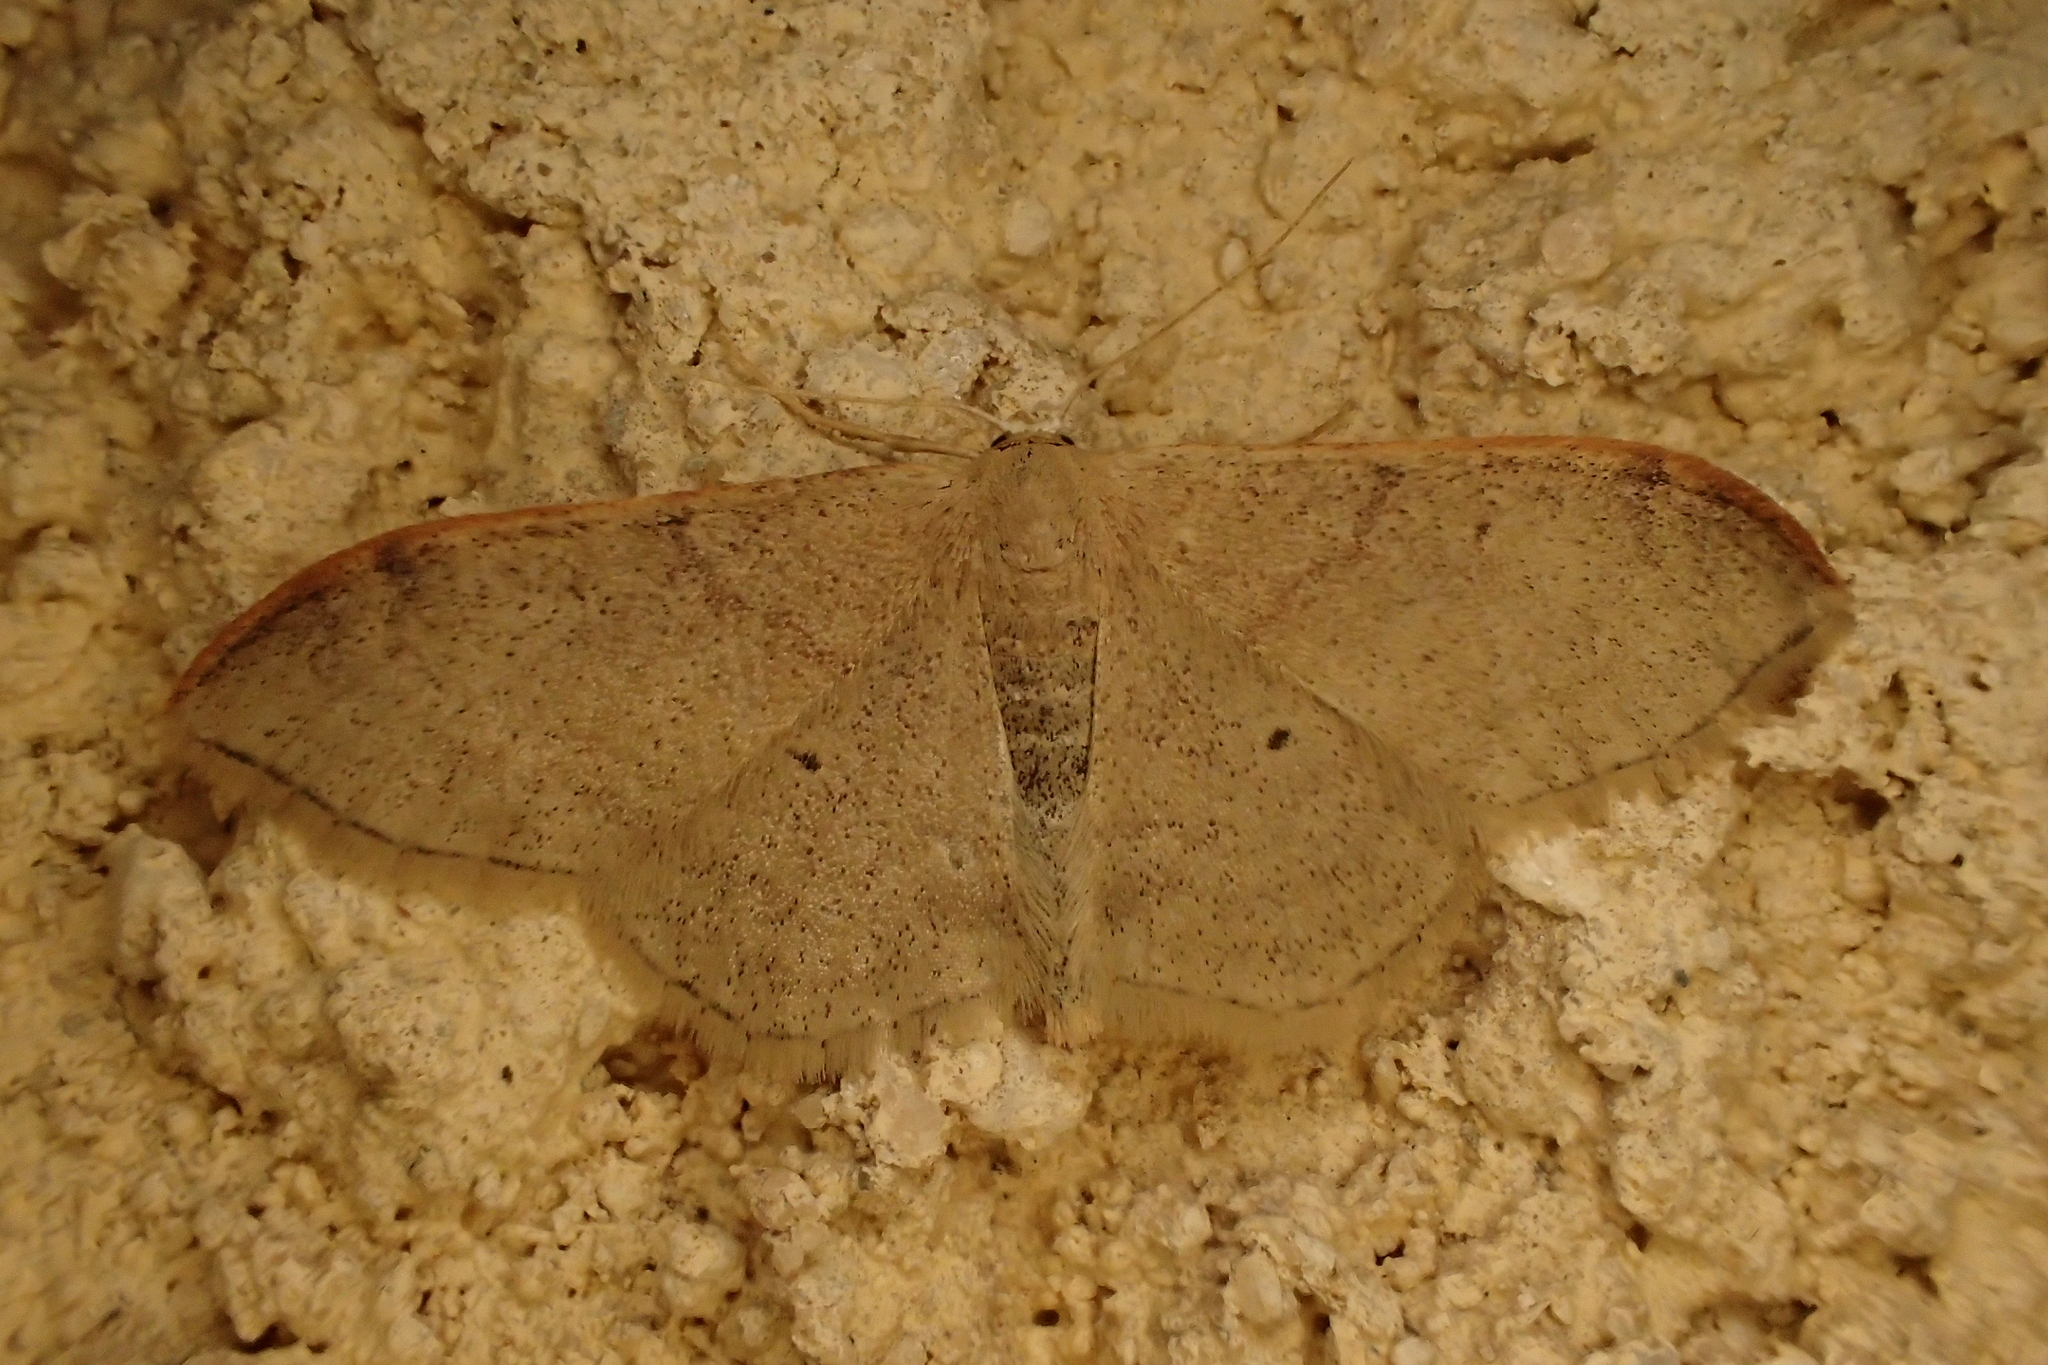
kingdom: Animalia
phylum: Arthropoda
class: Insecta
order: Lepidoptera
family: Geometridae
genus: Idaea
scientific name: Idaea degeneraria
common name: Portland ribbon wave
